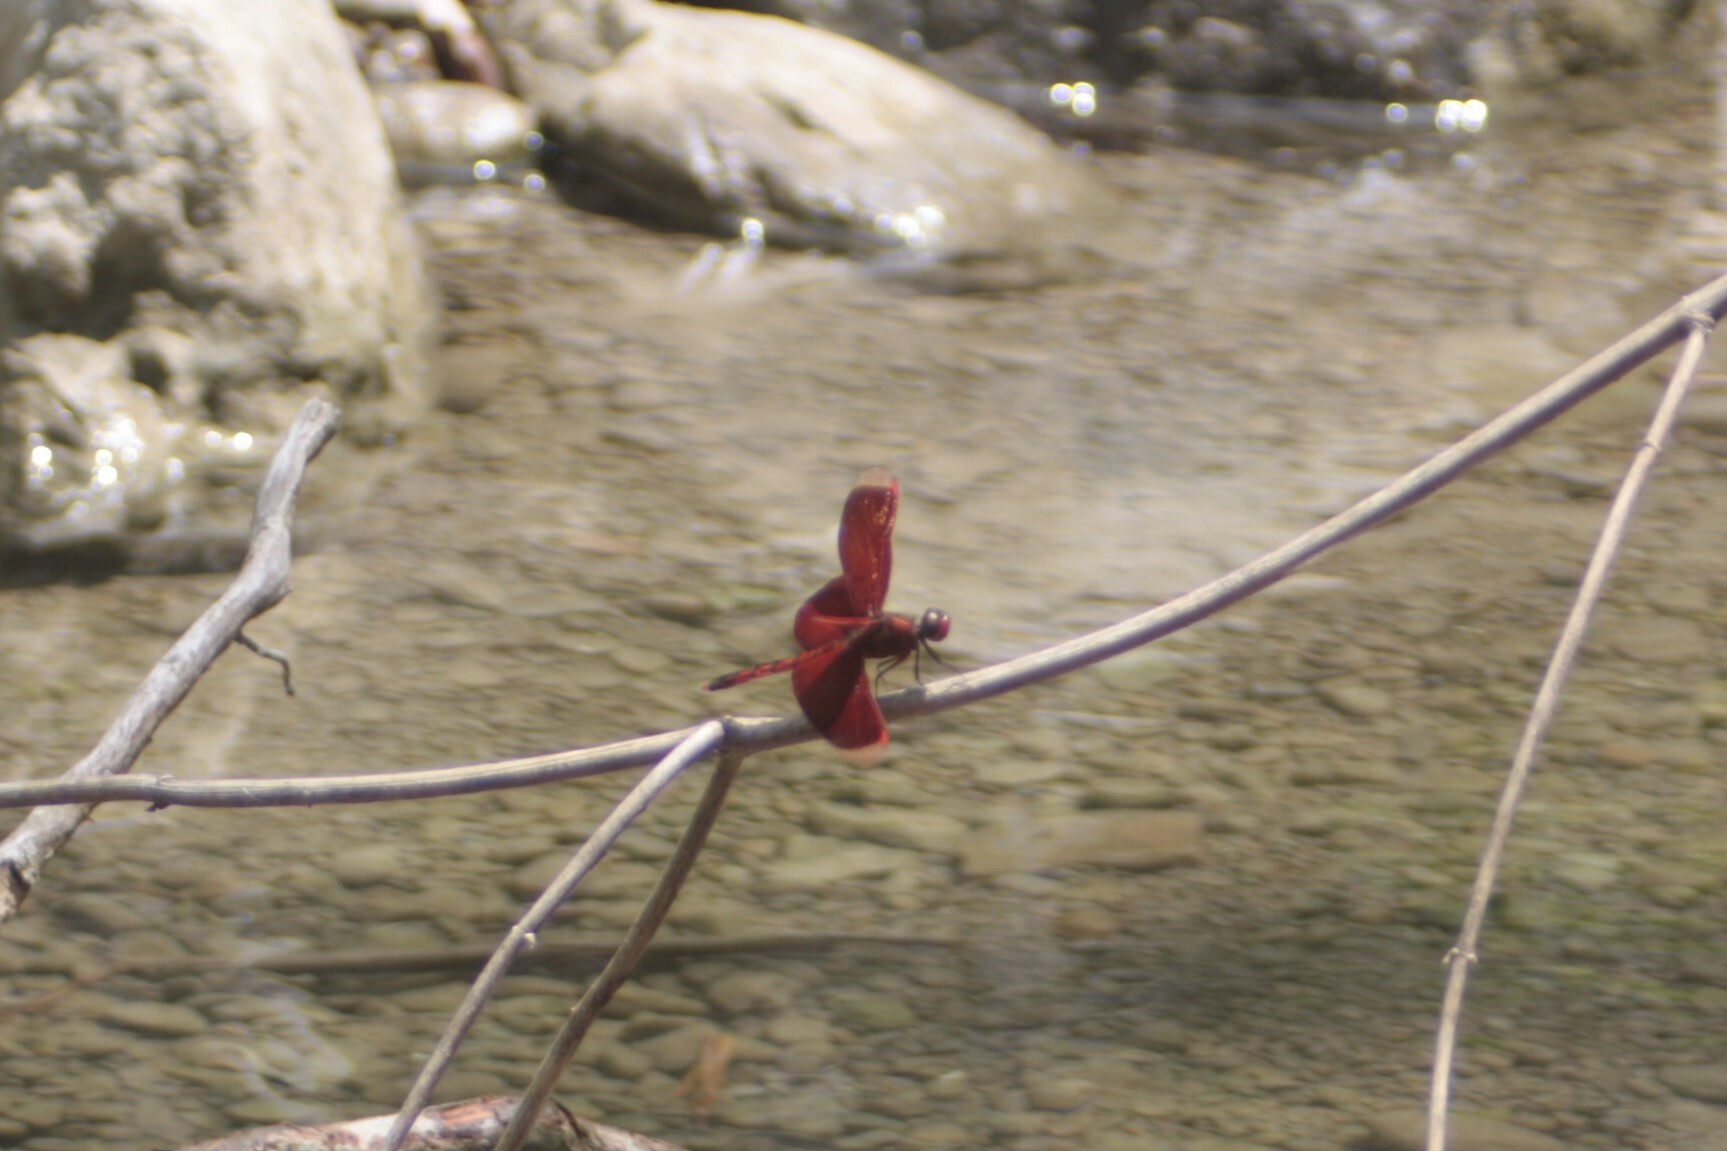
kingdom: Animalia
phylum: Arthropoda
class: Insecta
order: Odonata
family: Libellulidae
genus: Neurothemis
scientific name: Neurothemis taiwanensis
